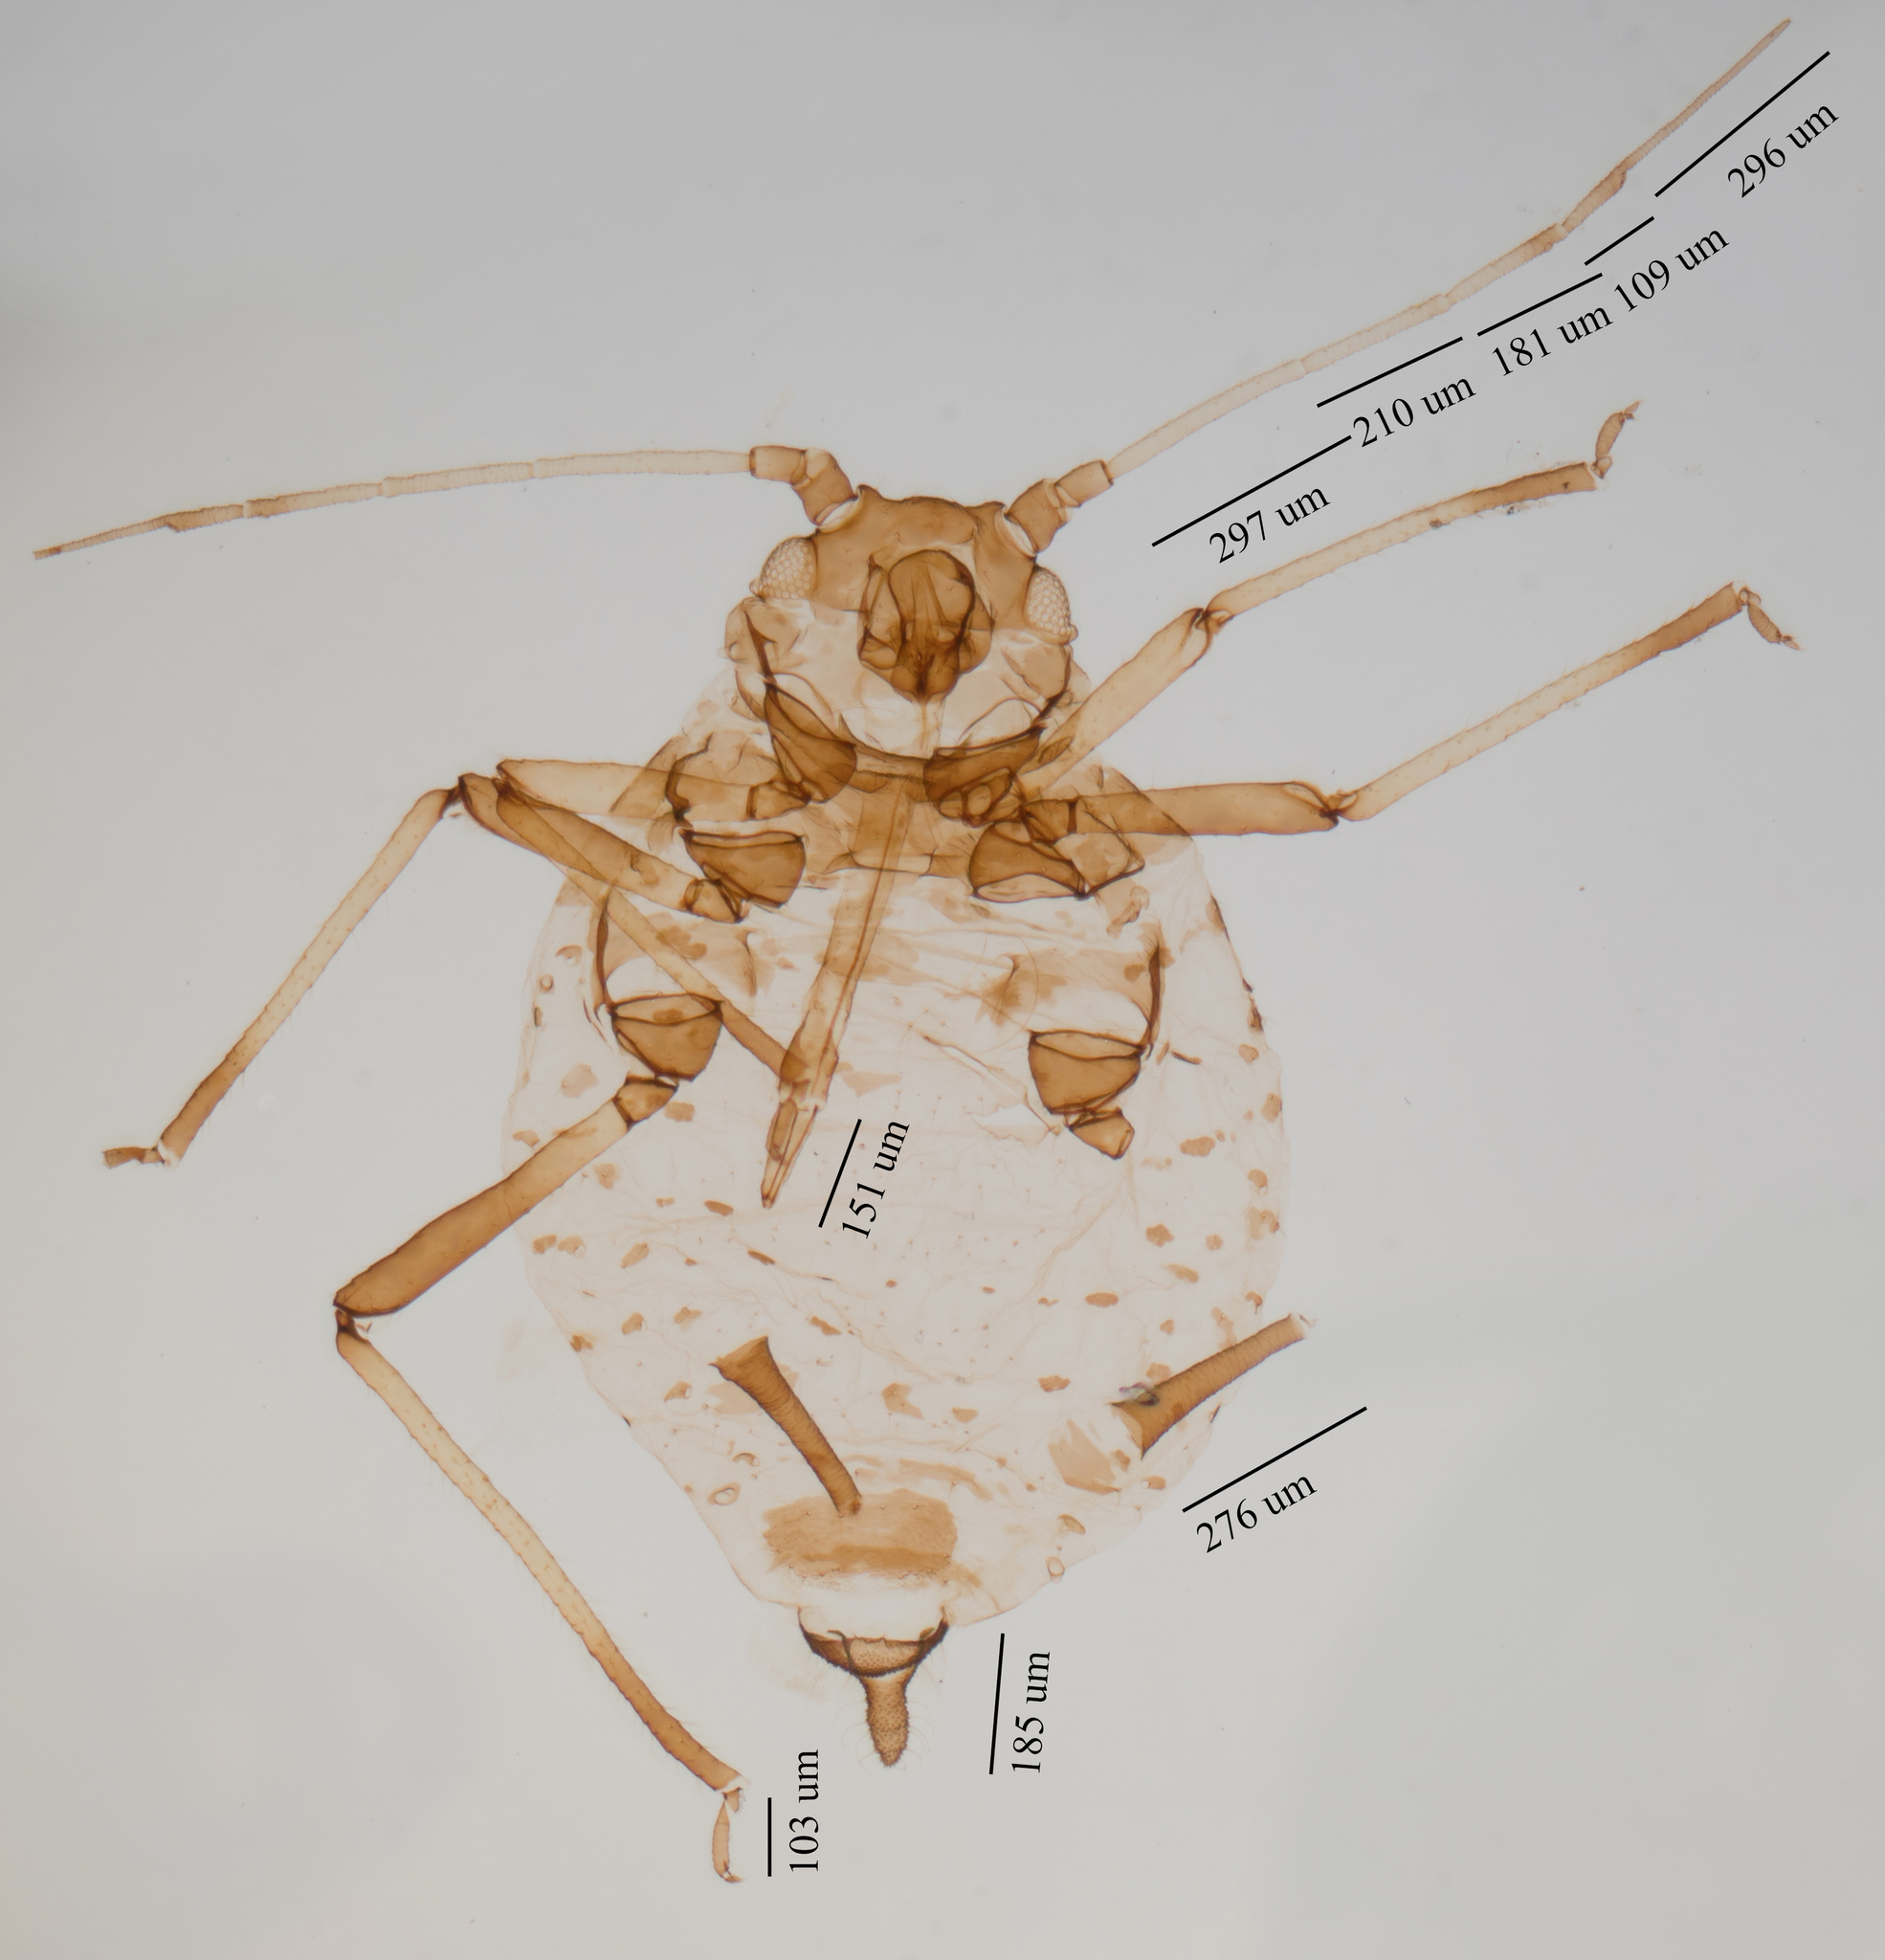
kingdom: Animalia
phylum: Arthropoda
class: Insecta
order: Hemiptera
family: Aphididae
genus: Aphis
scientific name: Aphis hederae
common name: Ivy aphid
